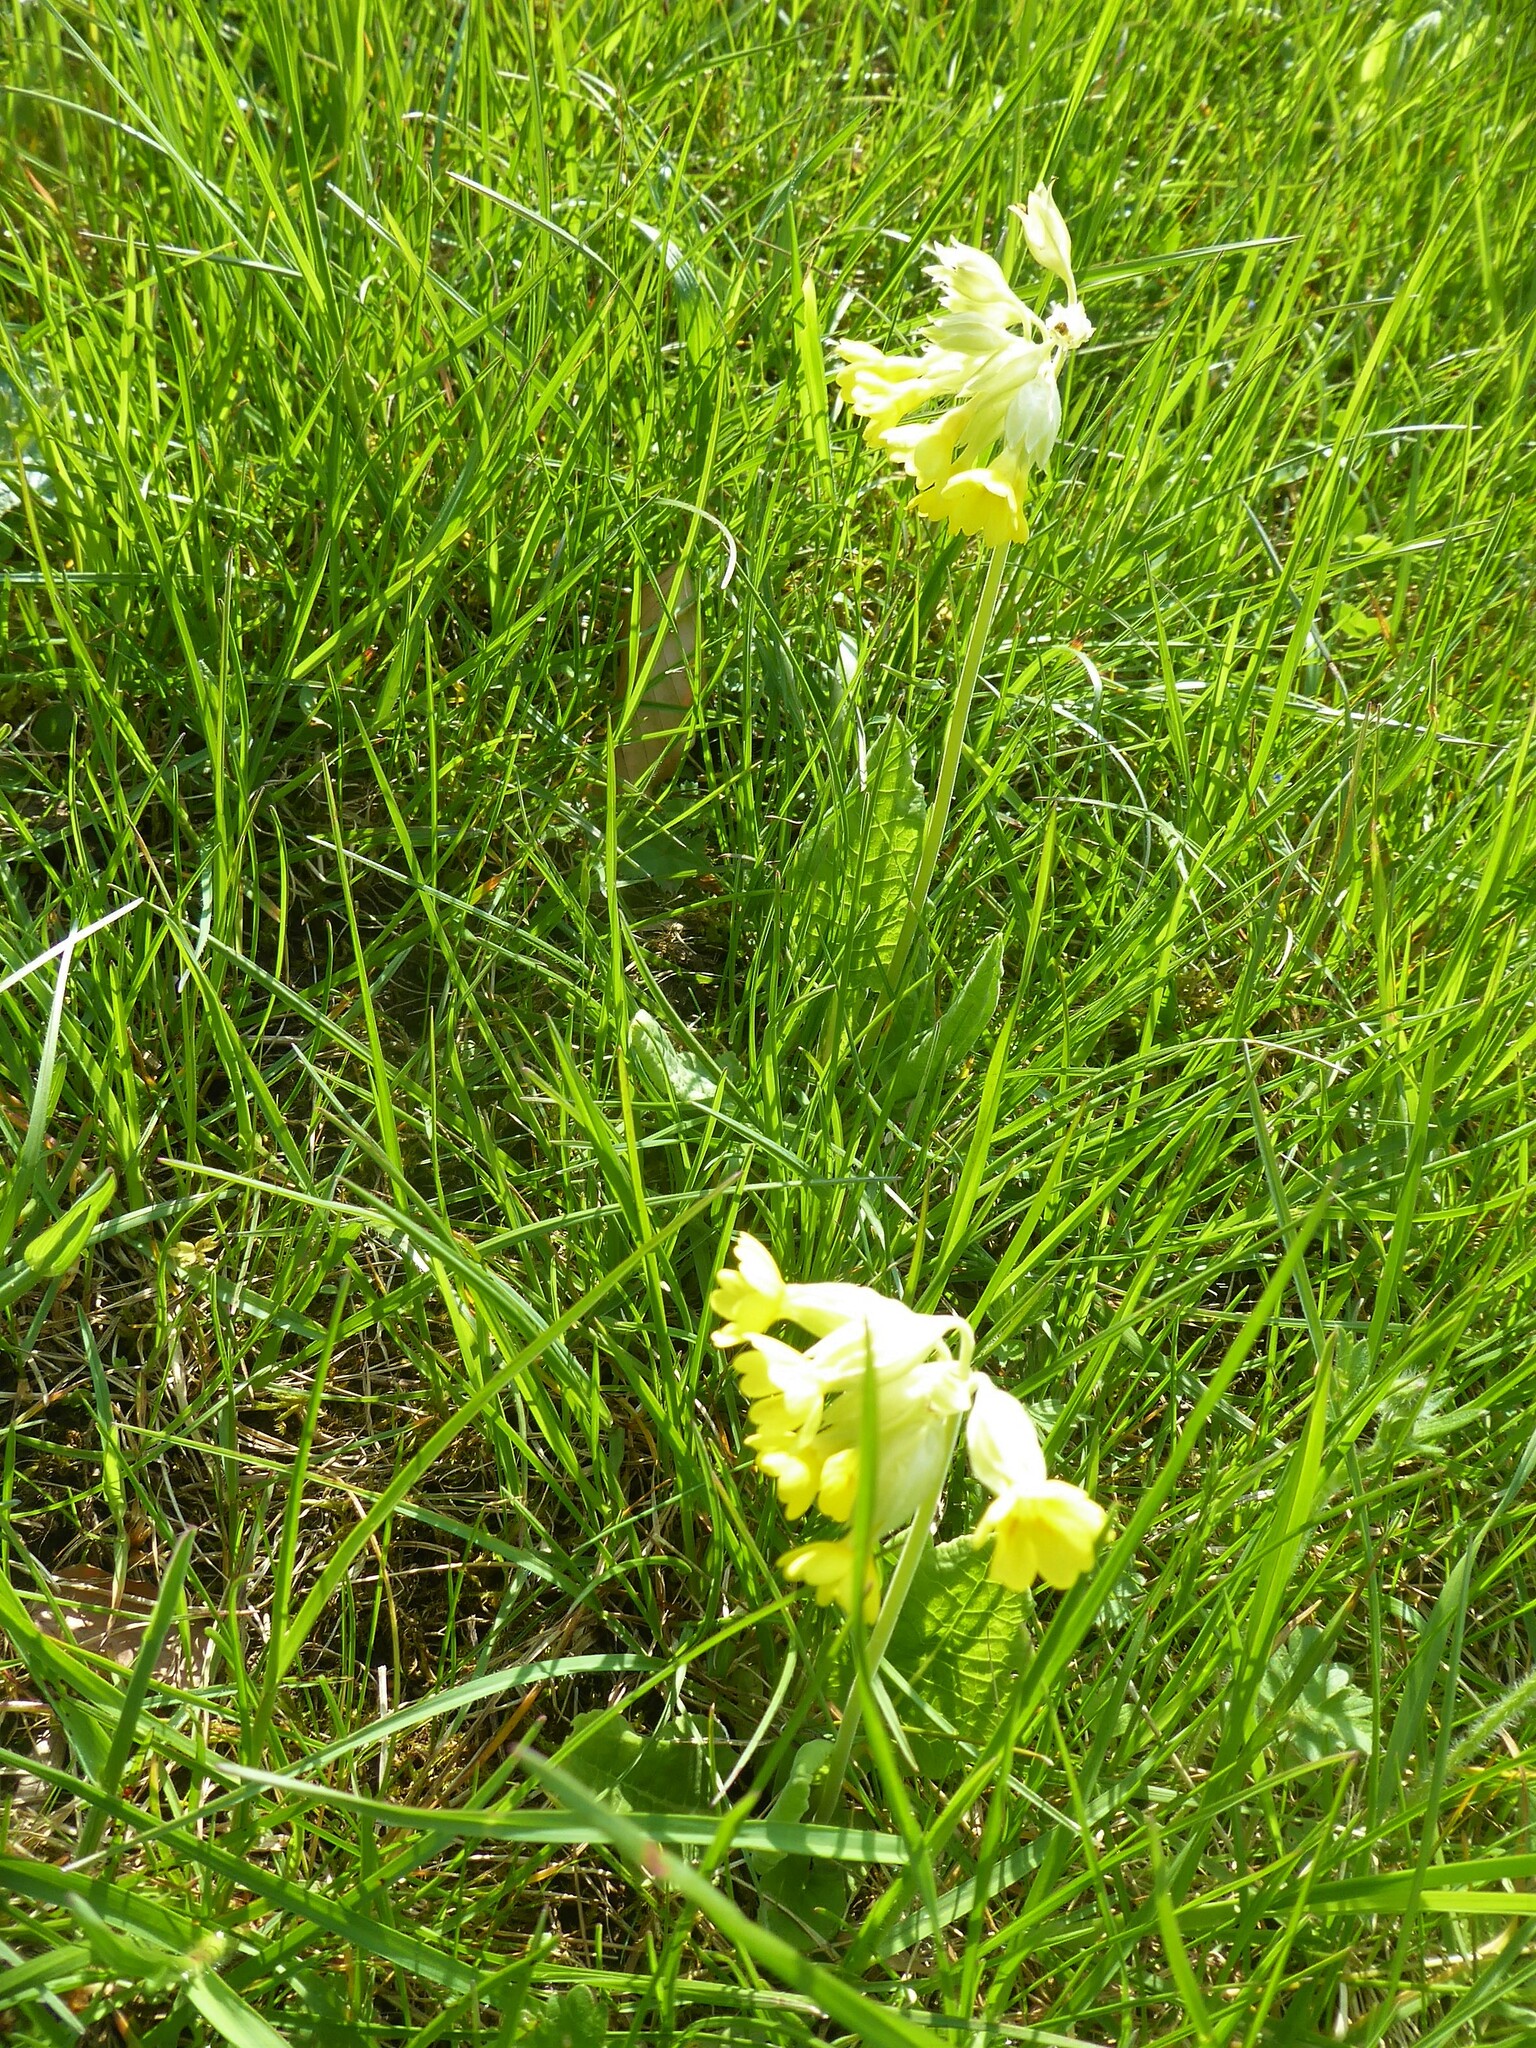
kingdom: Plantae
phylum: Tracheophyta
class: Magnoliopsida
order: Ericales
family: Primulaceae
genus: Primula
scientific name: Primula veris
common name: Cowslip
